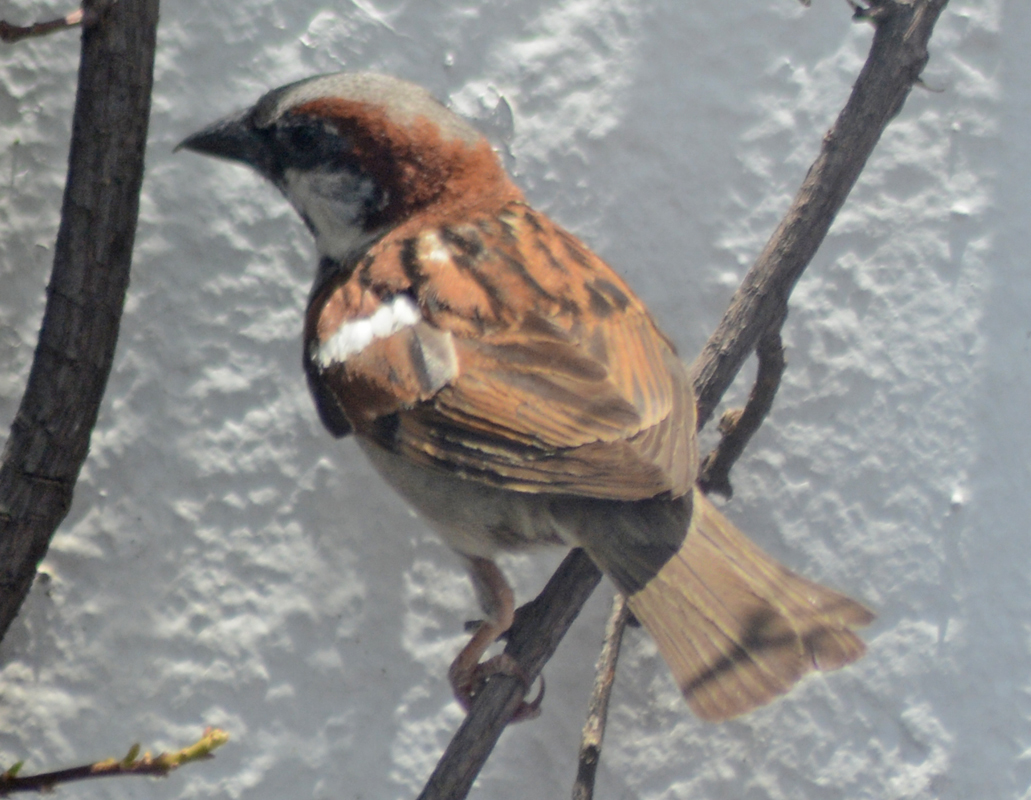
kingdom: Animalia
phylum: Chordata
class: Aves
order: Passeriformes
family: Passeridae
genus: Passer
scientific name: Passer domesticus
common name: House sparrow
